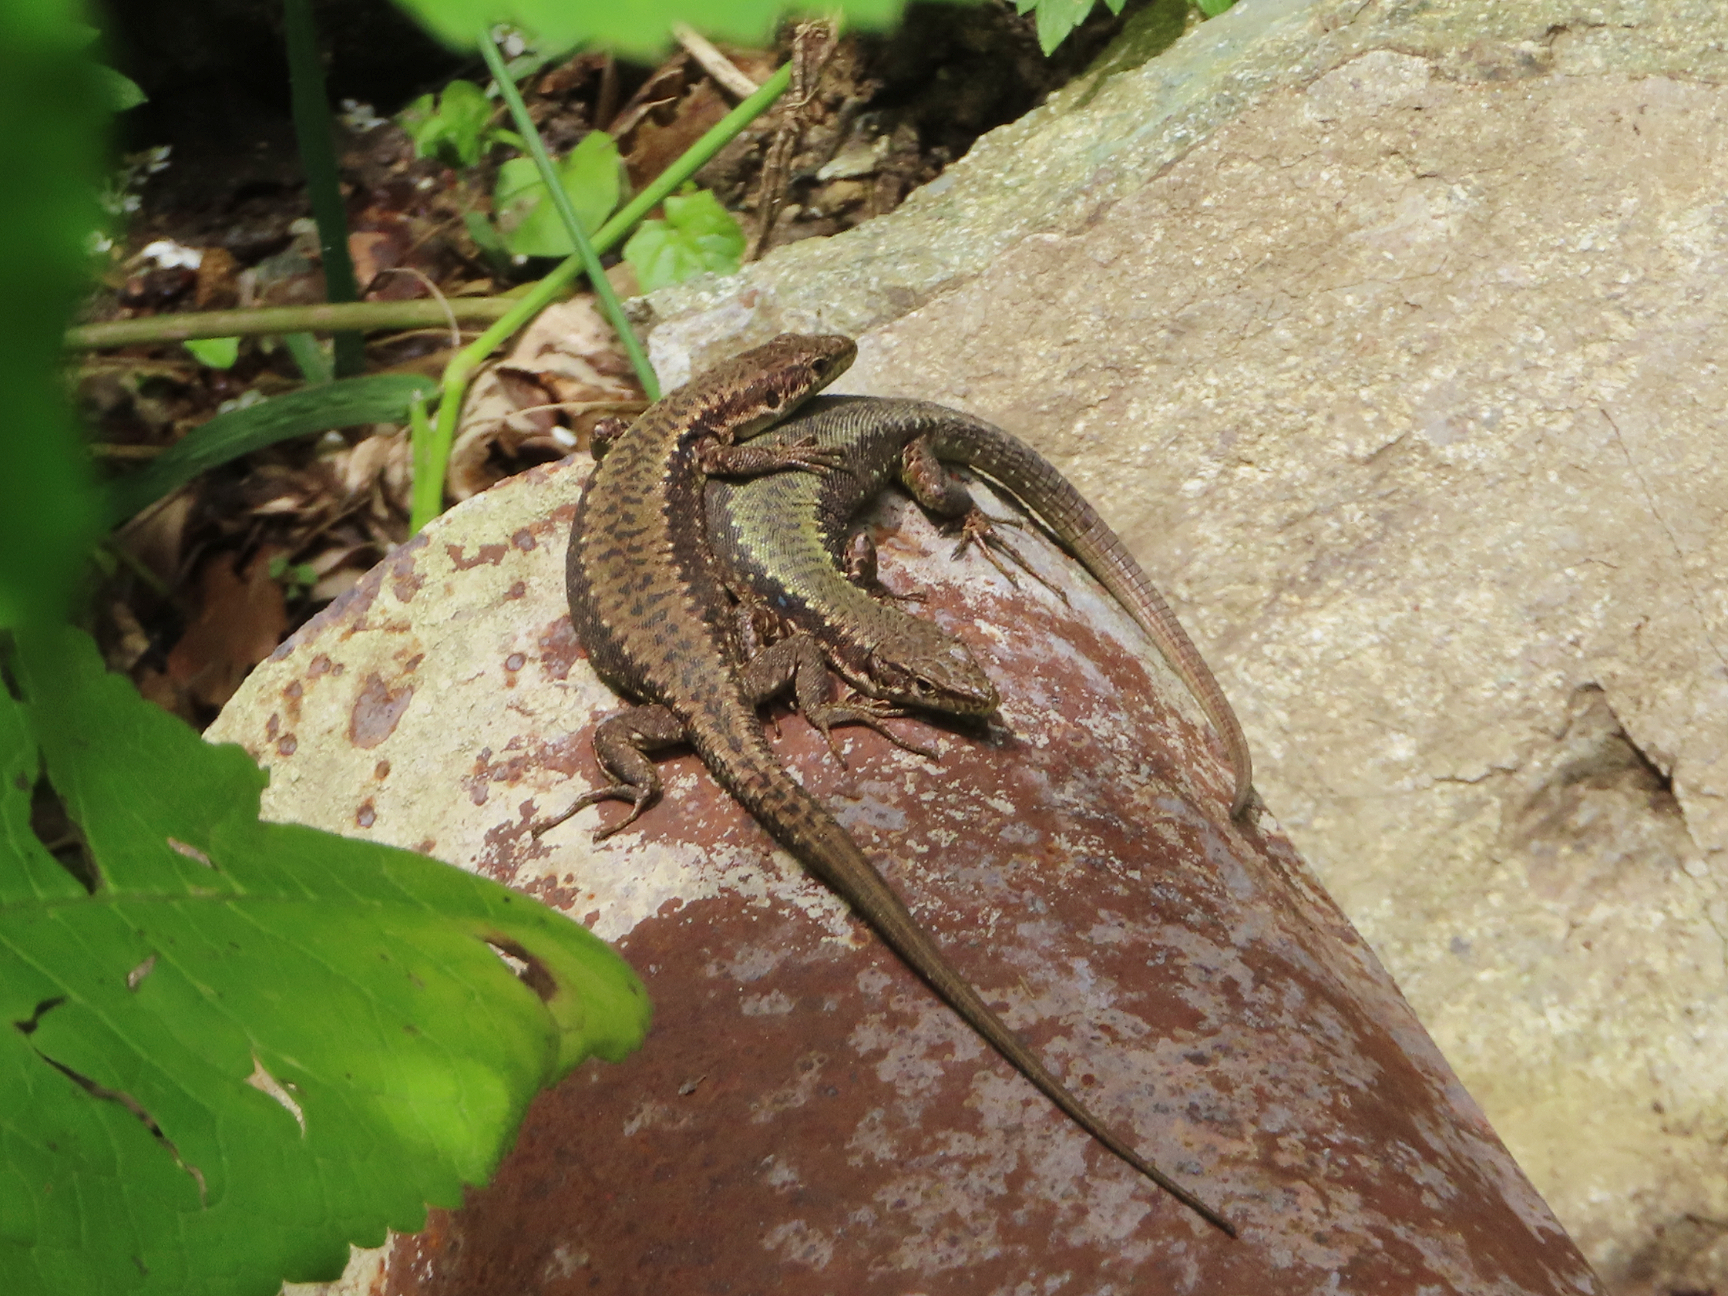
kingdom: Animalia
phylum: Chordata
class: Squamata
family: Lacertidae
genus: Darevskia
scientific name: Darevskia armeniaca
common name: Armenian lizard
